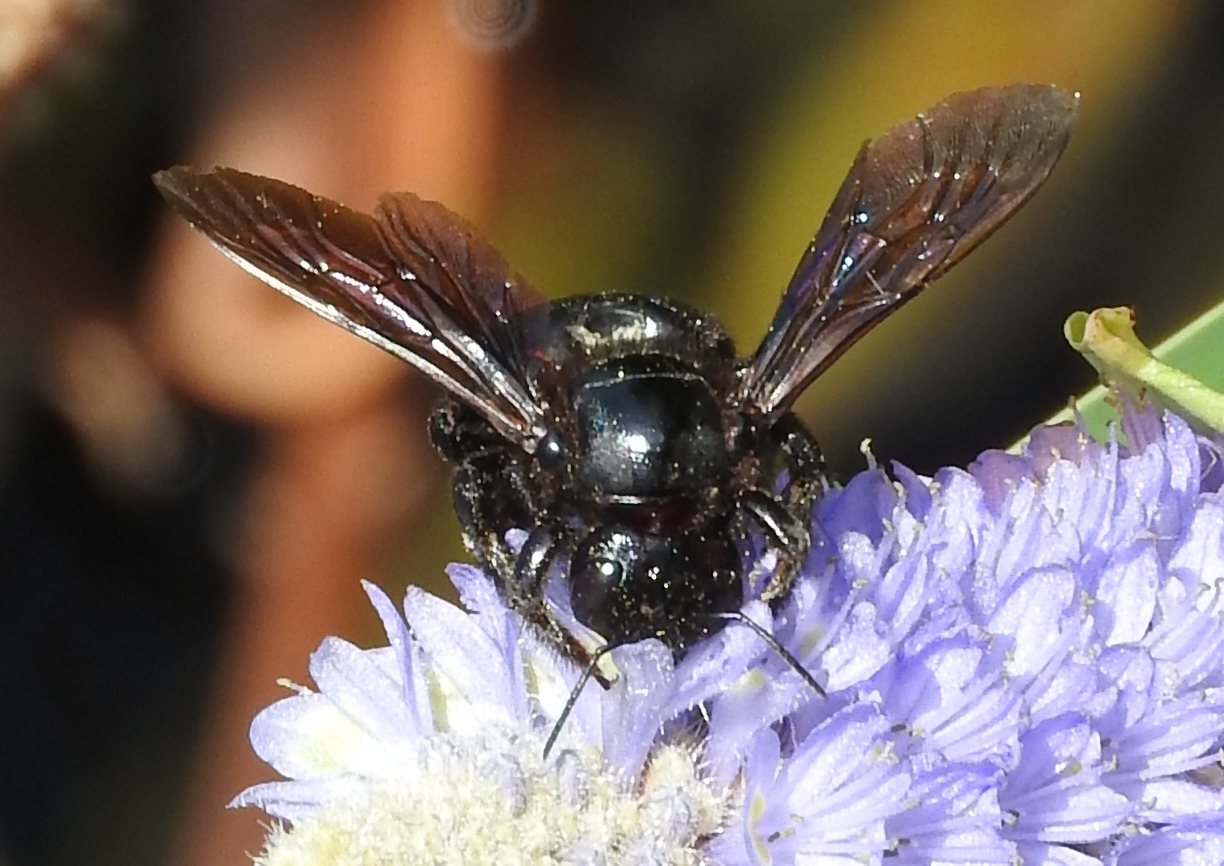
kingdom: Animalia
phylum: Arthropoda
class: Insecta
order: Hymenoptera
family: Apidae
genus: Xylocopa
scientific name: Xylocopa
